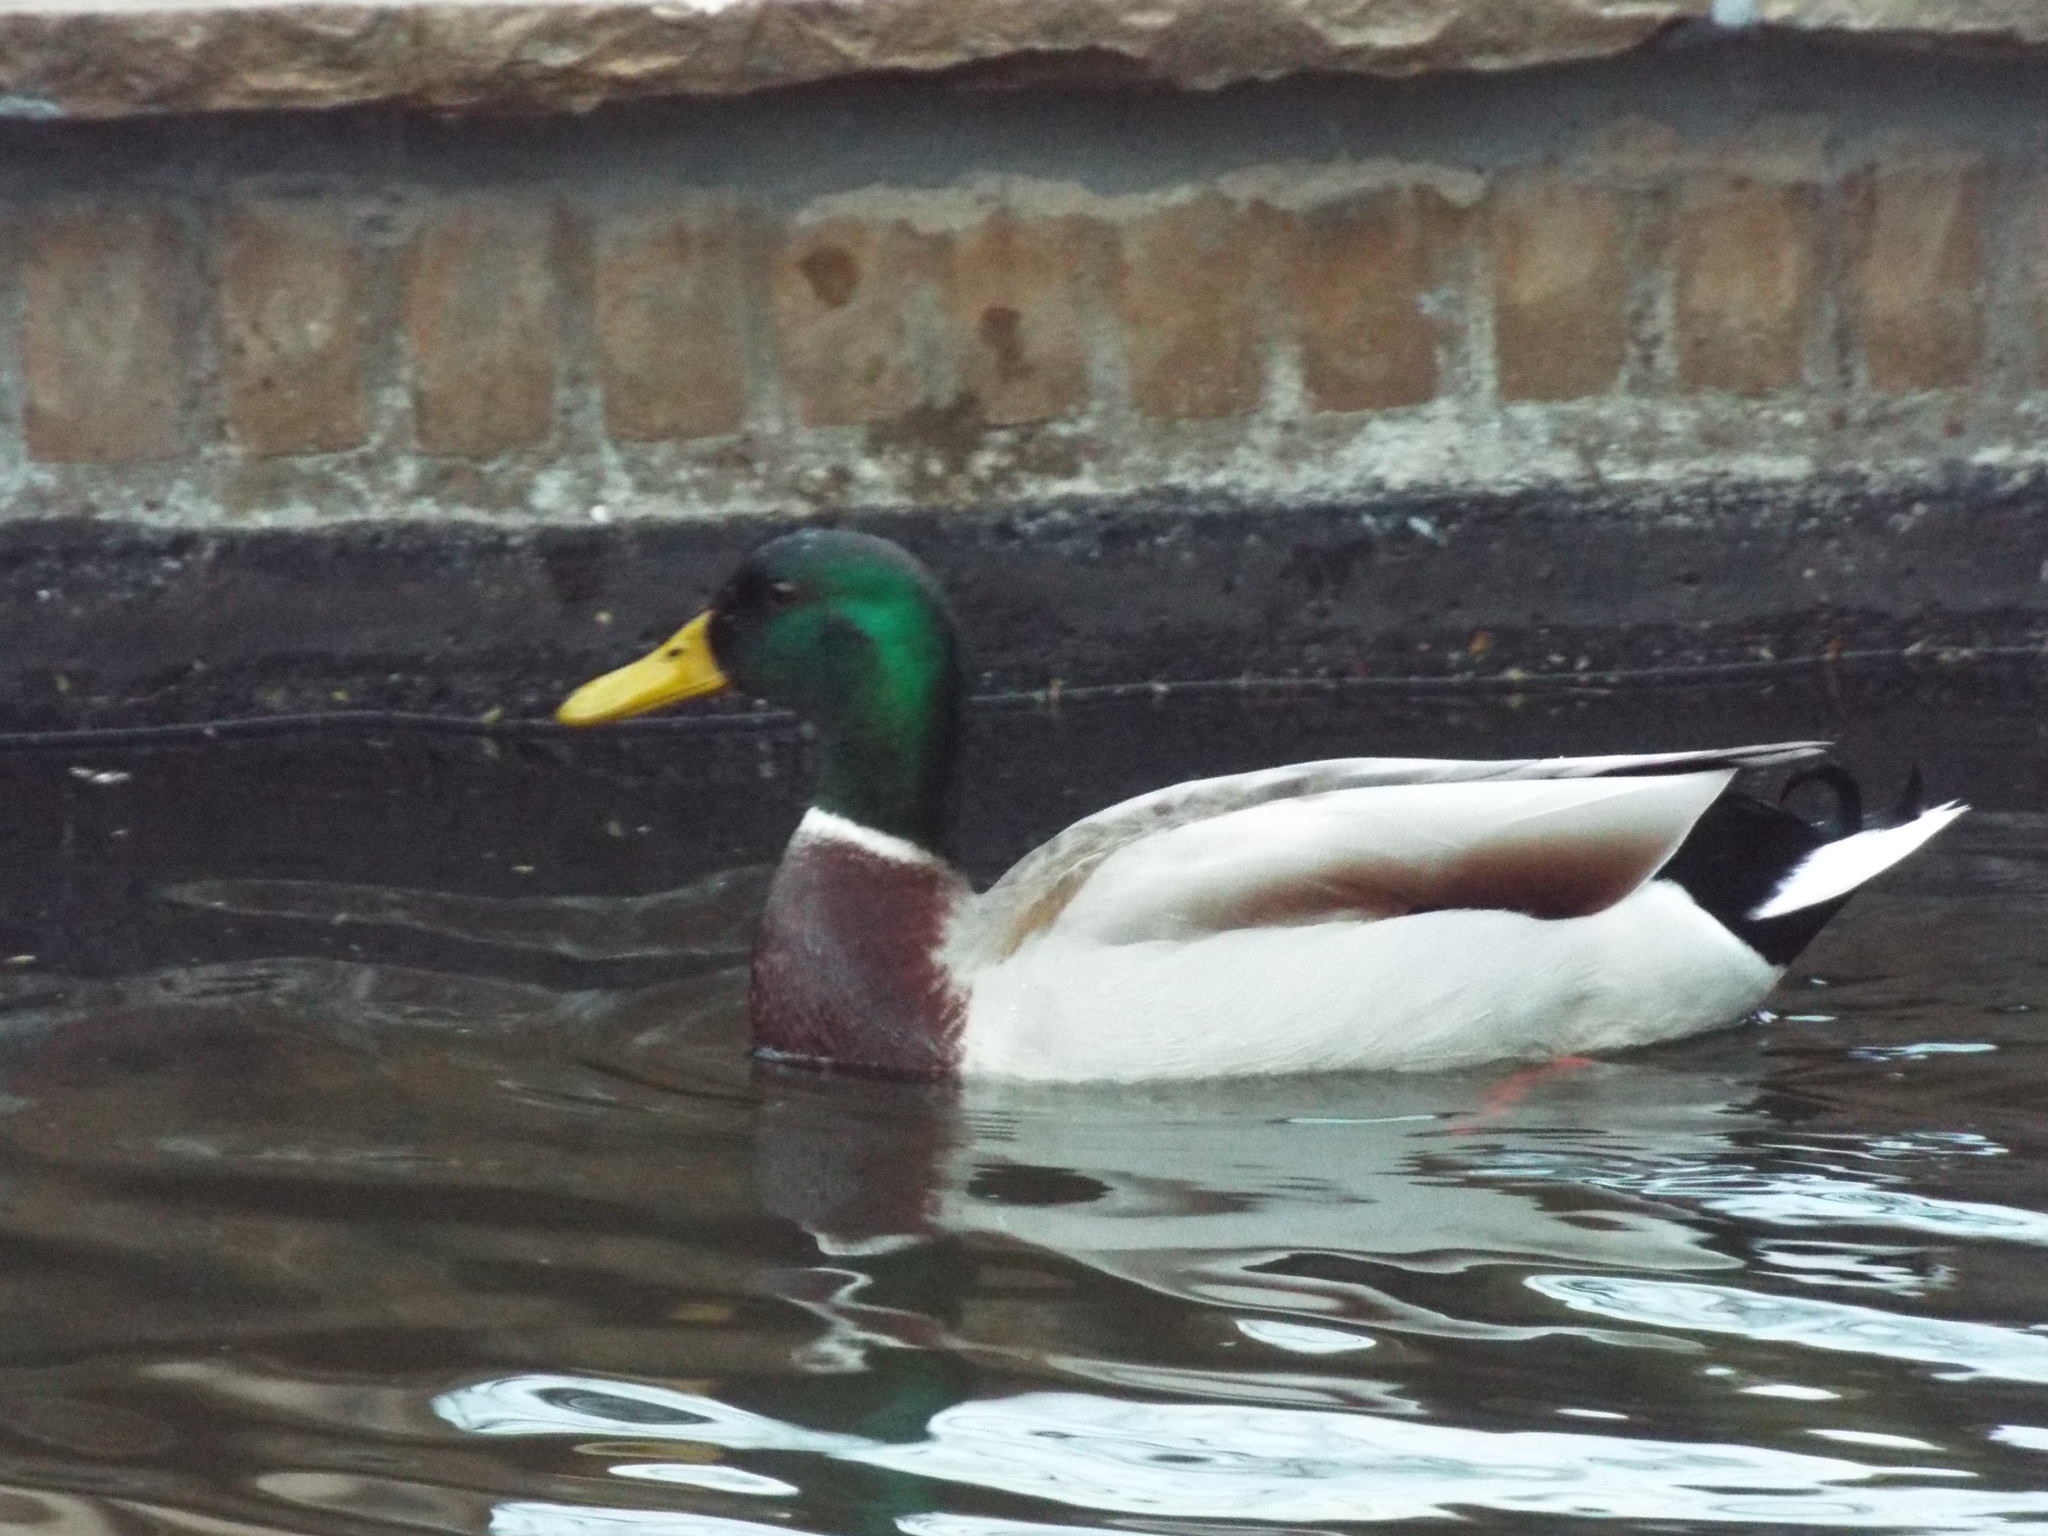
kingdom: Animalia
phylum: Chordata
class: Aves
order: Anseriformes
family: Anatidae
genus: Anas
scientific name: Anas platyrhynchos
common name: Mallard
